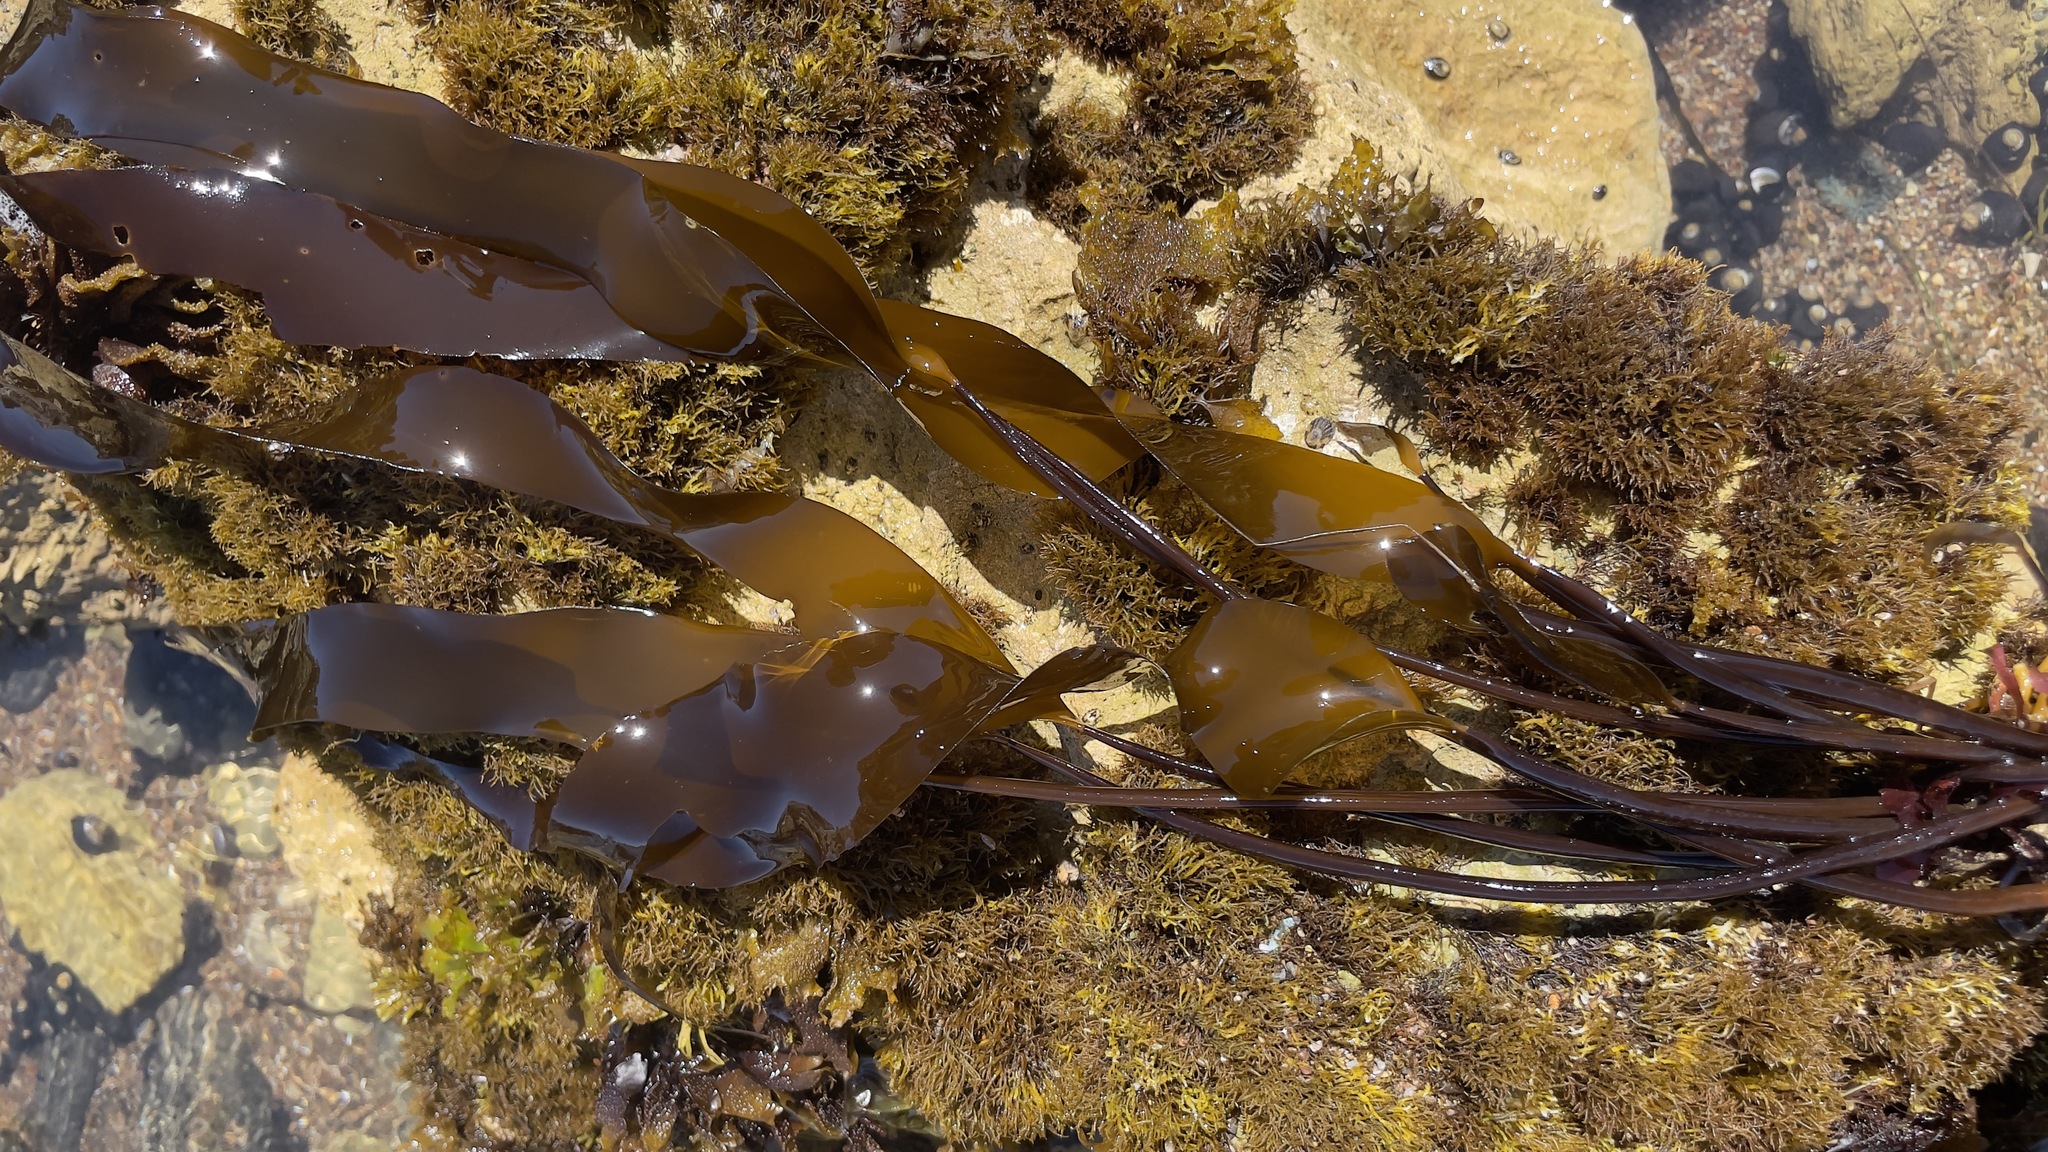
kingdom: Chromista
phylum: Ochrophyta
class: Phaeophyceae
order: Laminariales
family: Laminariaceae
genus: Laminaria
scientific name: Laminaria sinclairii
